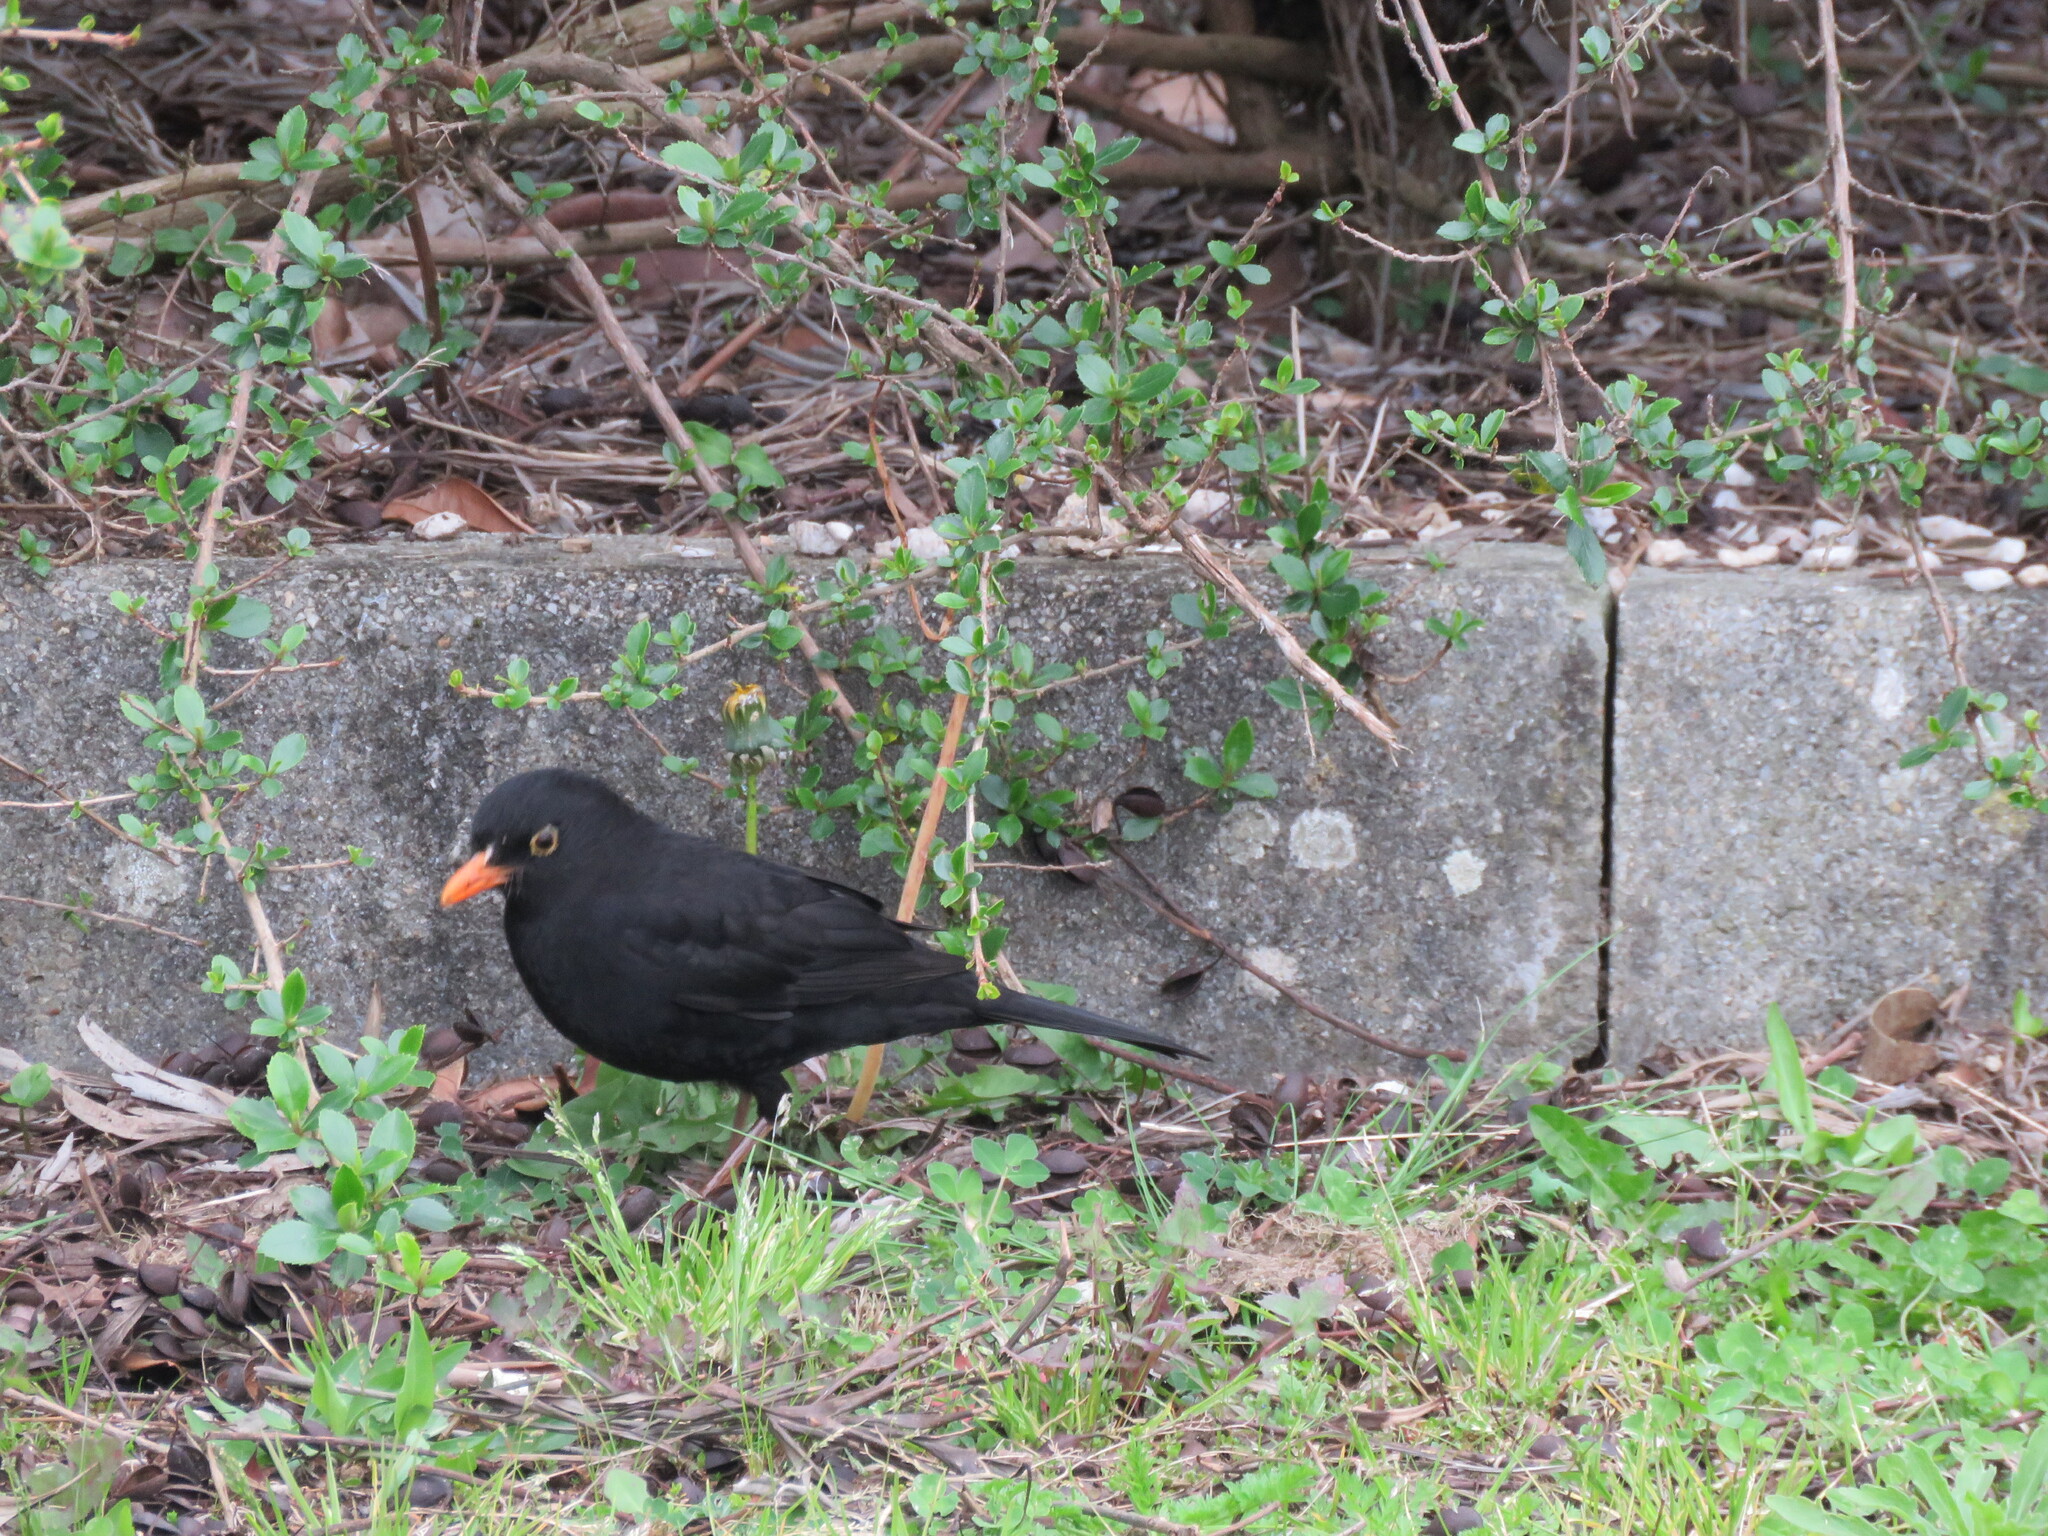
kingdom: Animalia
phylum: Chordata
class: Aves
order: Passeriformes
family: Turdidae
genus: Turdus
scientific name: Turdus merula
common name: Common blackbird
